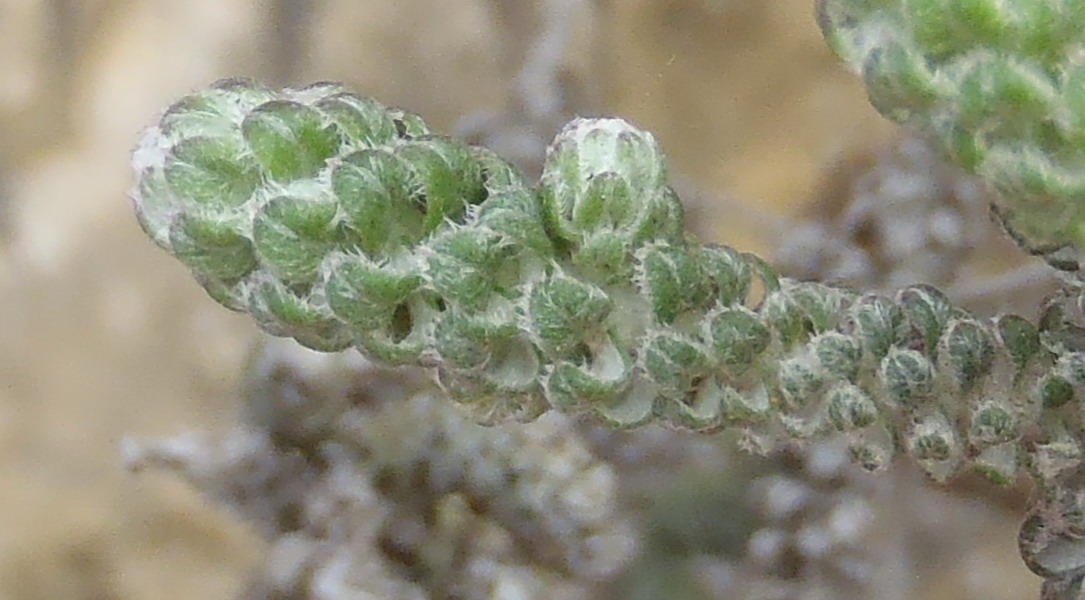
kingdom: Plantae
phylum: Tracheophyta
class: Magnoliopsida
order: Asterales
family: Asteraceae
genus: Stoebe
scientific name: Stoebe muirii
